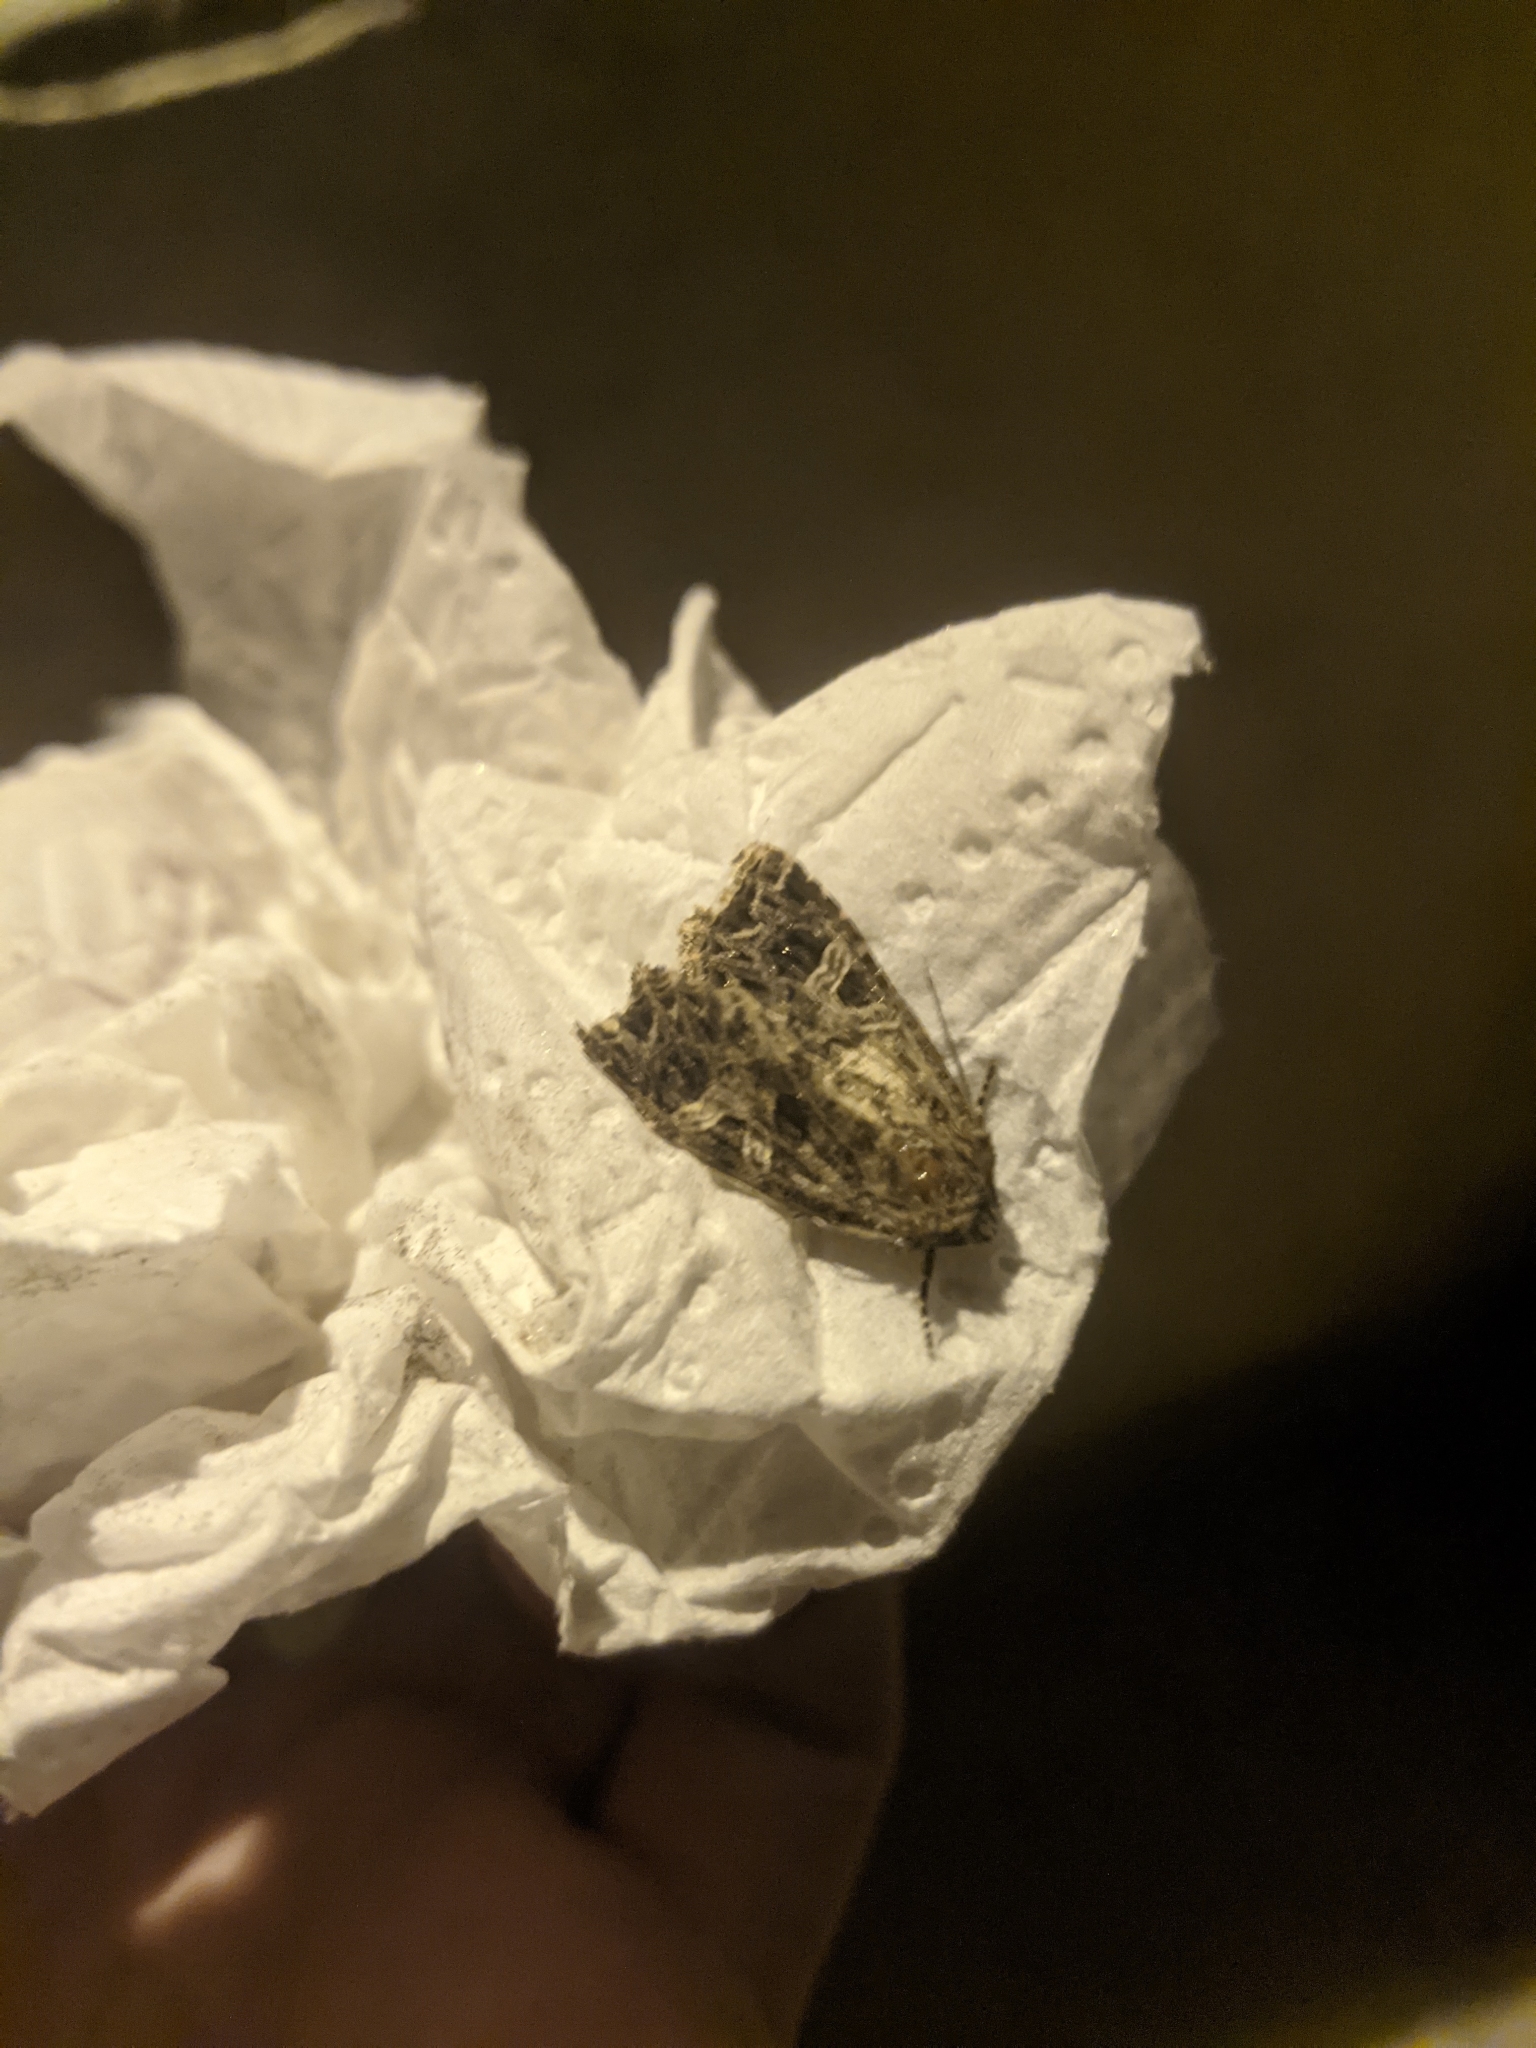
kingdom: Animalia
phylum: Arthropoda
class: Insecta
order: Lepidoptera
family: Noctuidae
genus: Sideridis
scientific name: Sideridis rivularis
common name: Campion
